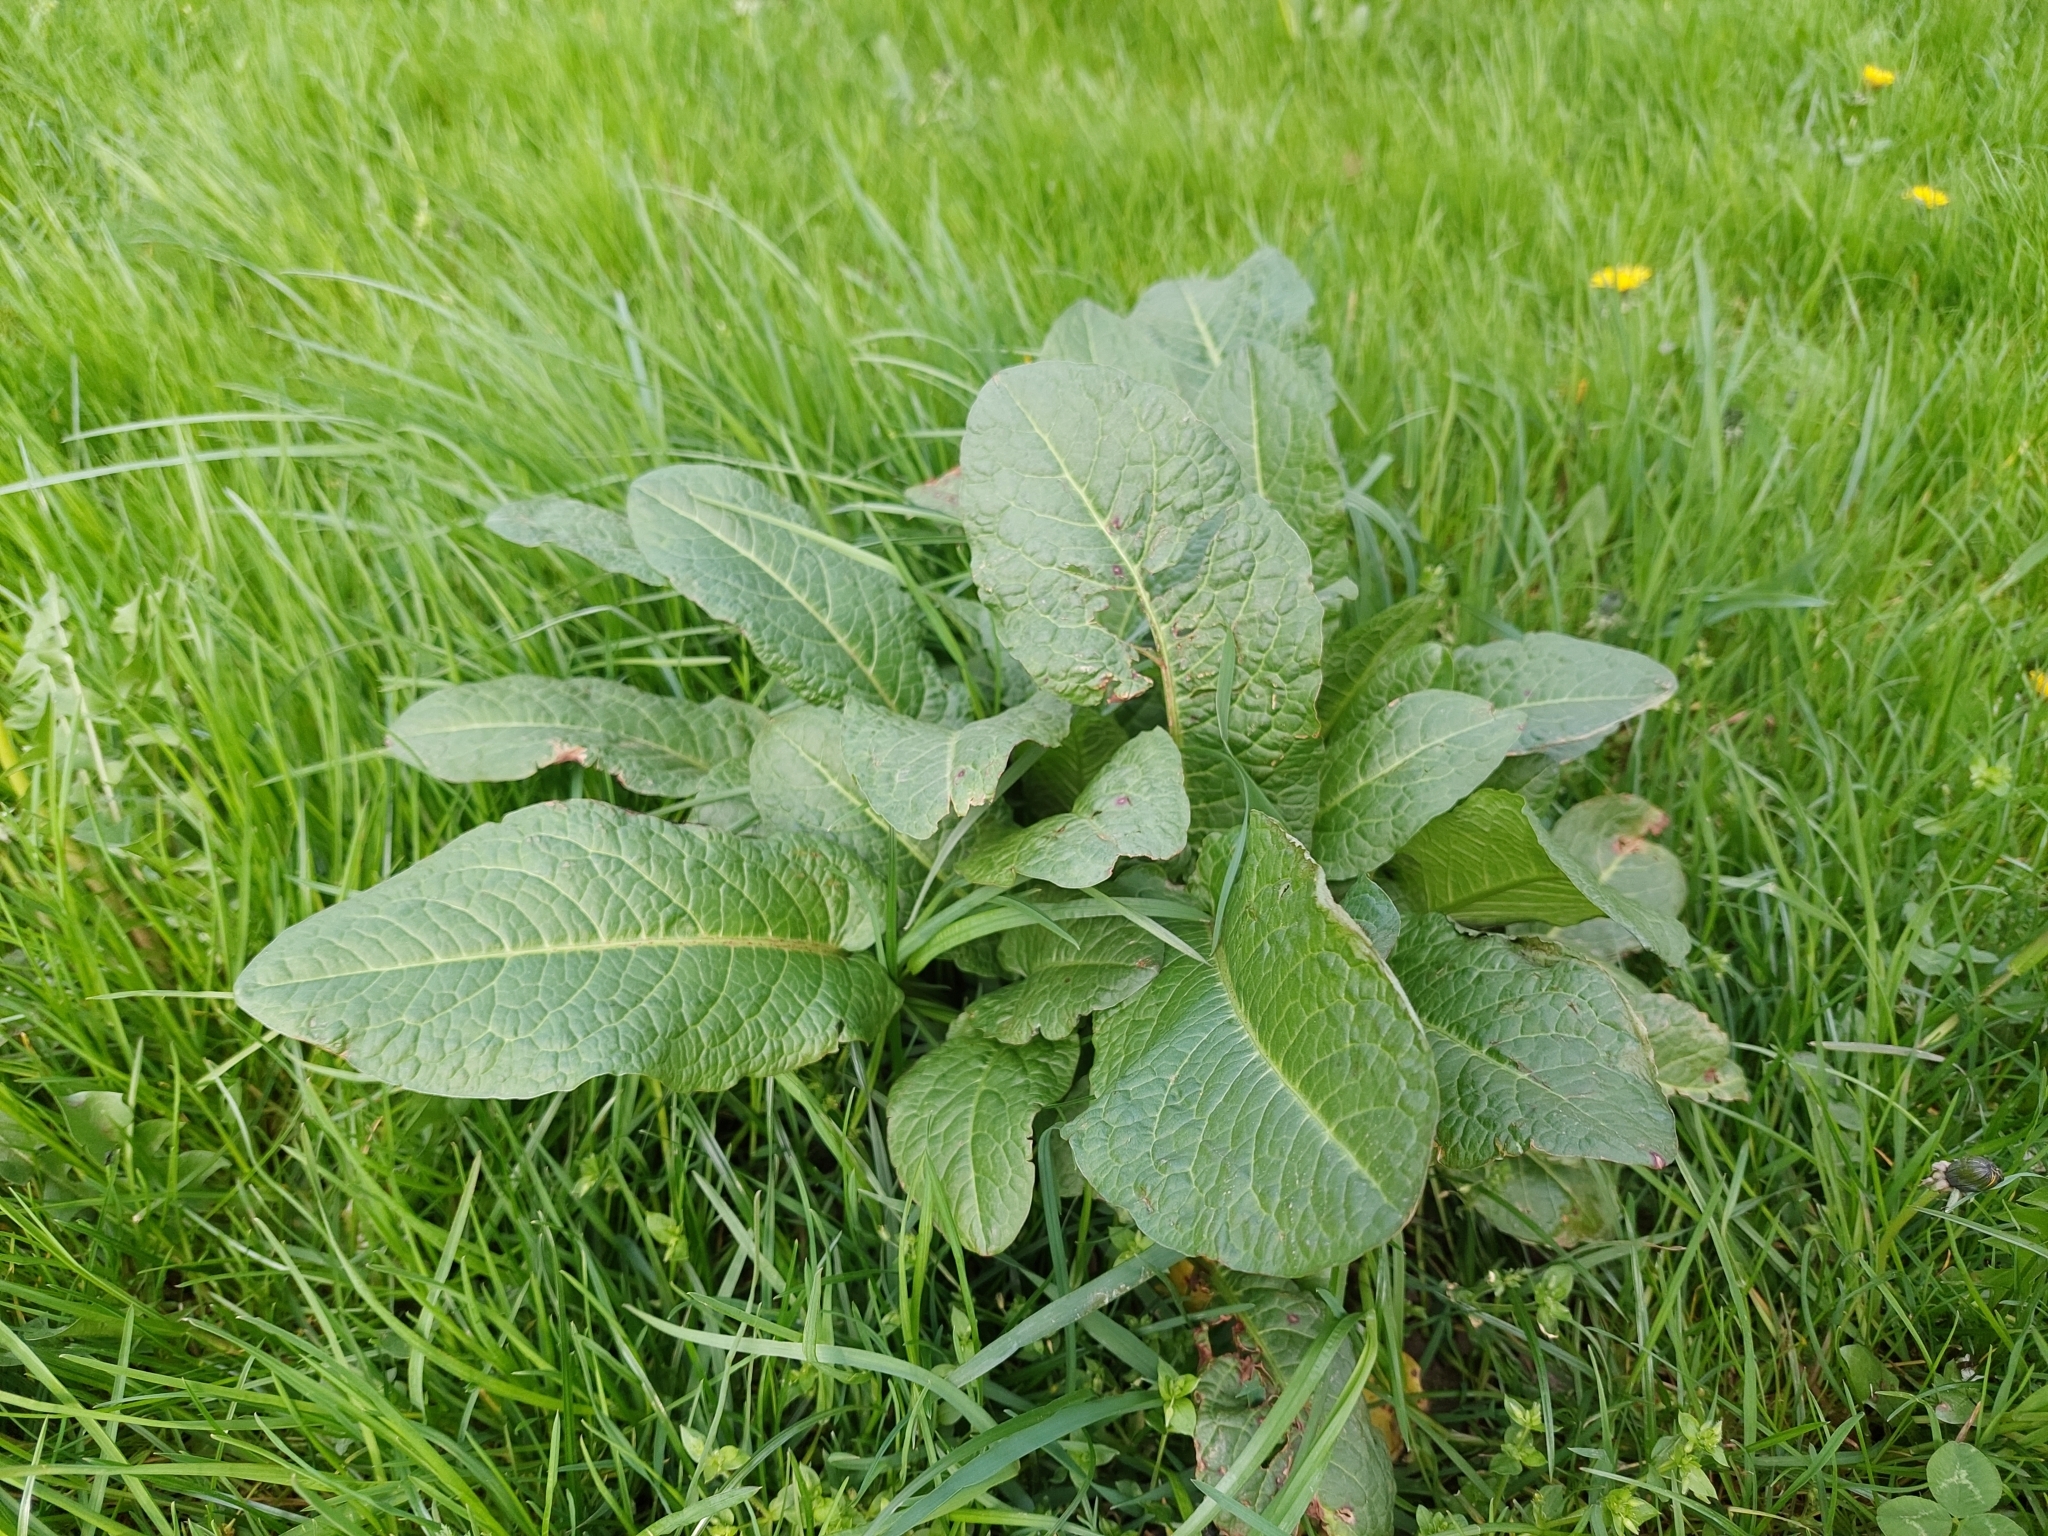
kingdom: Plantae
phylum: Tracheophyta
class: Magnoliopsida
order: Caryophyllales
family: Polygonaceae
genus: Rumex
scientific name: Rumex obtusifolius
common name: Bitter dock
